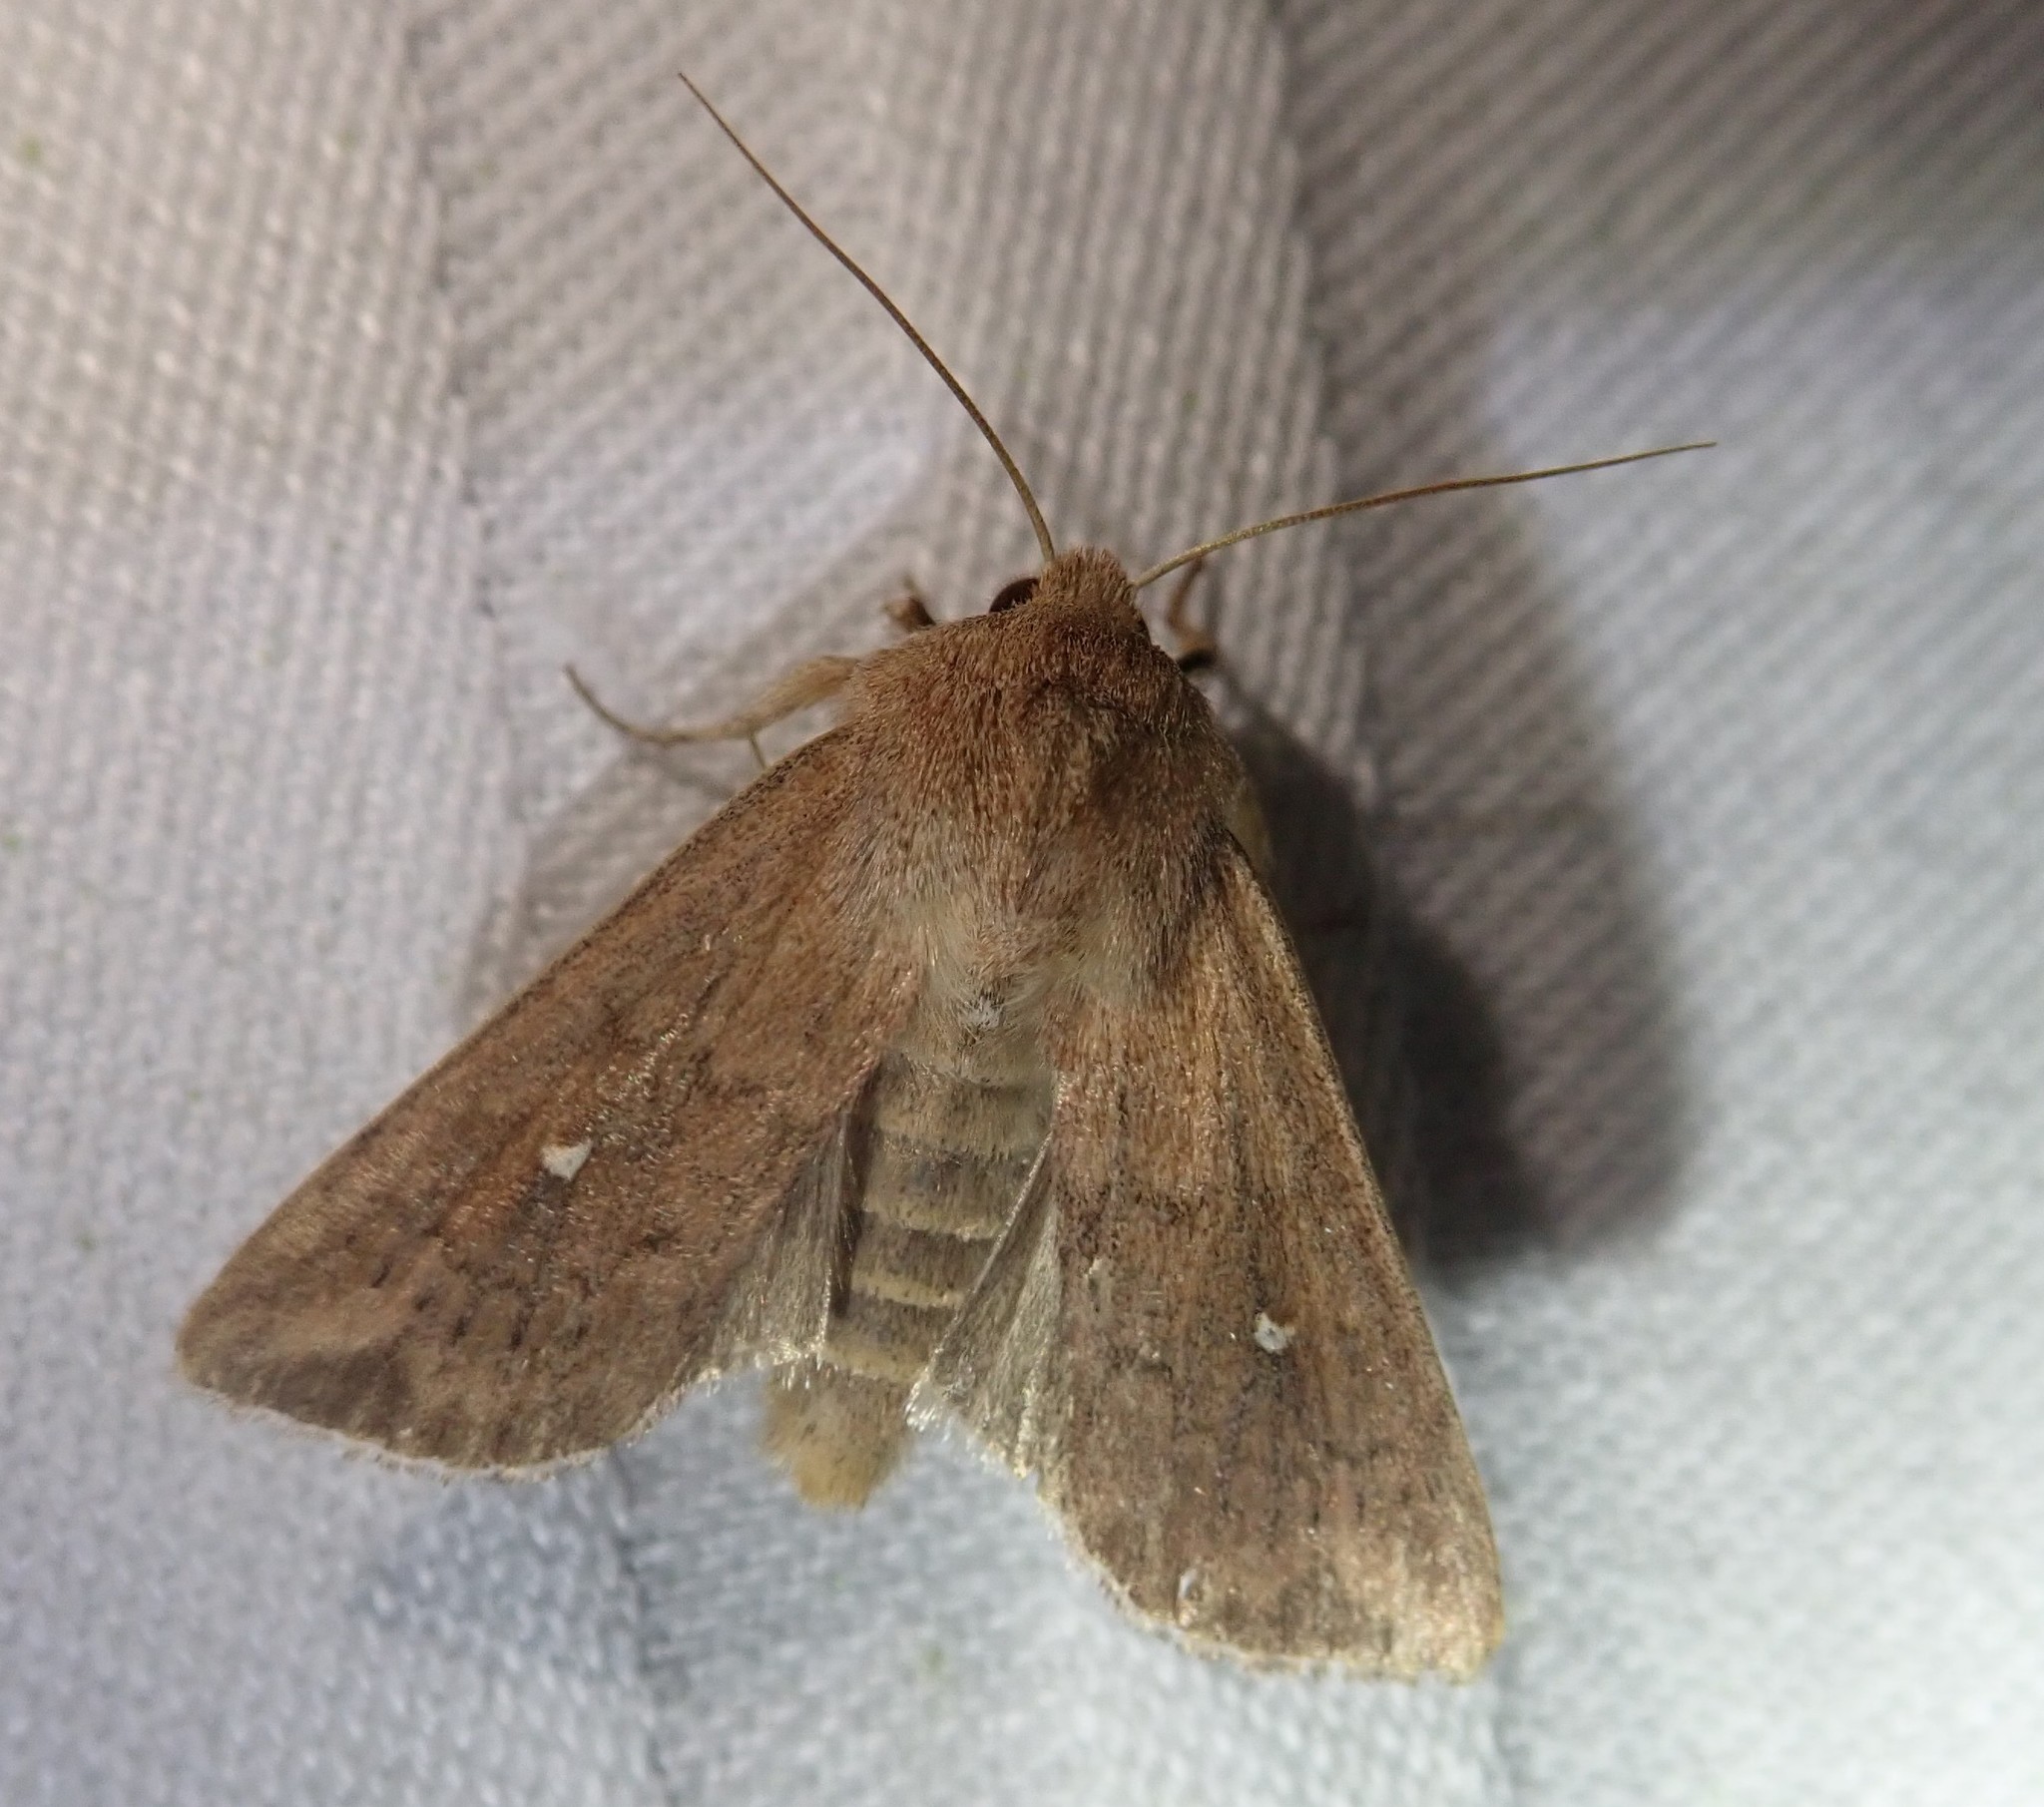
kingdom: Animalia
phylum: Arthropoda
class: Insecta
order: Lepidoptera
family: Noctuidae
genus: Mythimna
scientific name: Mythimna albipuncta
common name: White-point
